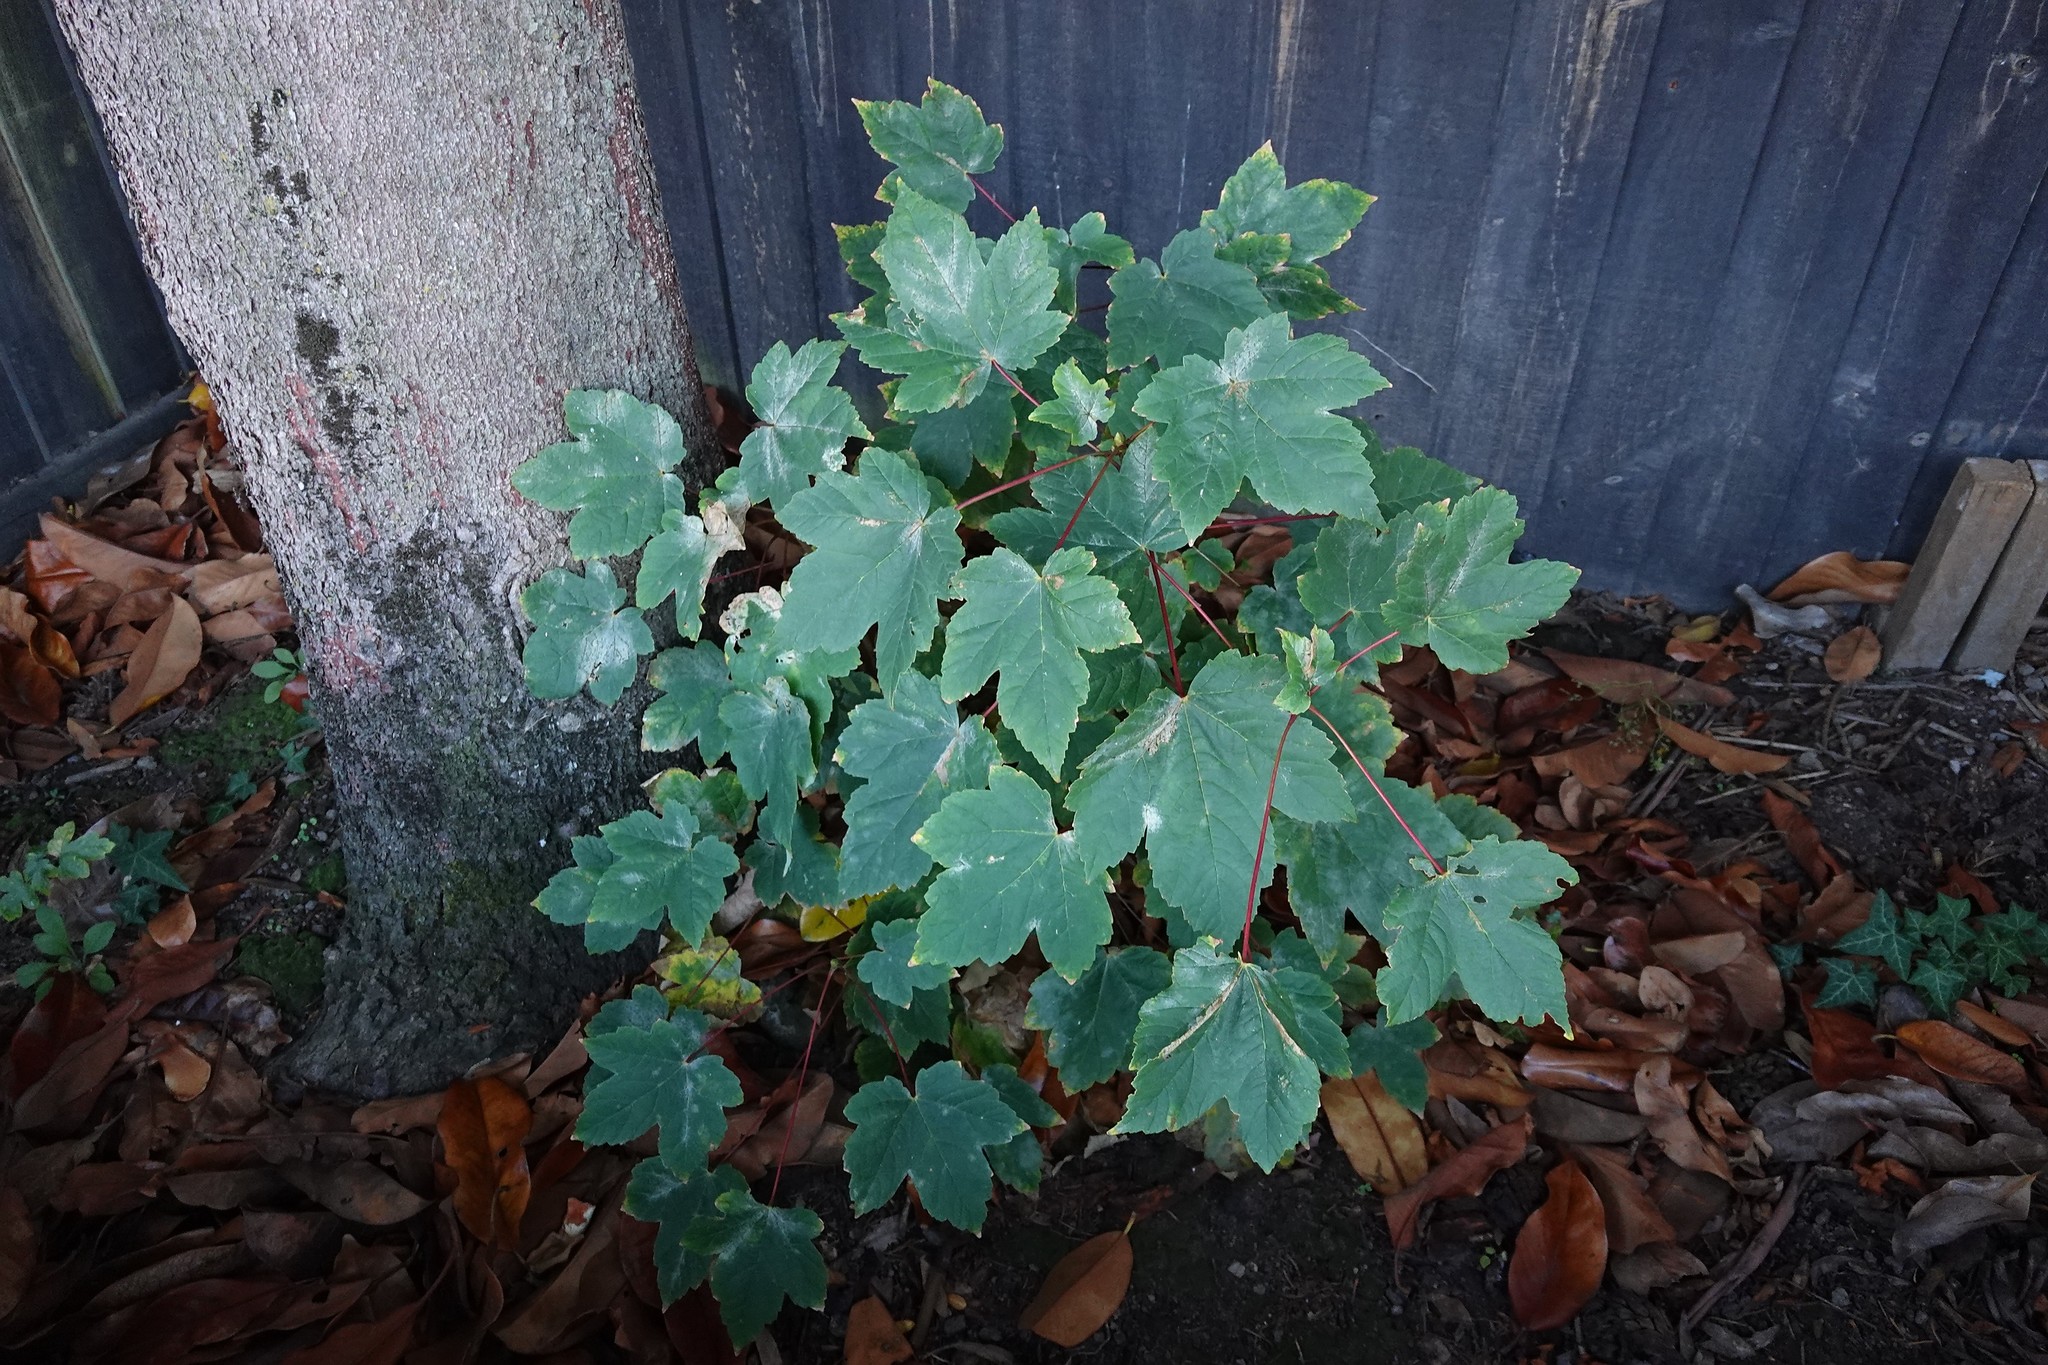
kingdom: Fungi
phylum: Ascomycota
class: Leotiomycetes
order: Helotiales
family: Erysiphaceae
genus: Sawadaea
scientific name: Sawadaea bicornis
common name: Maple mildew
